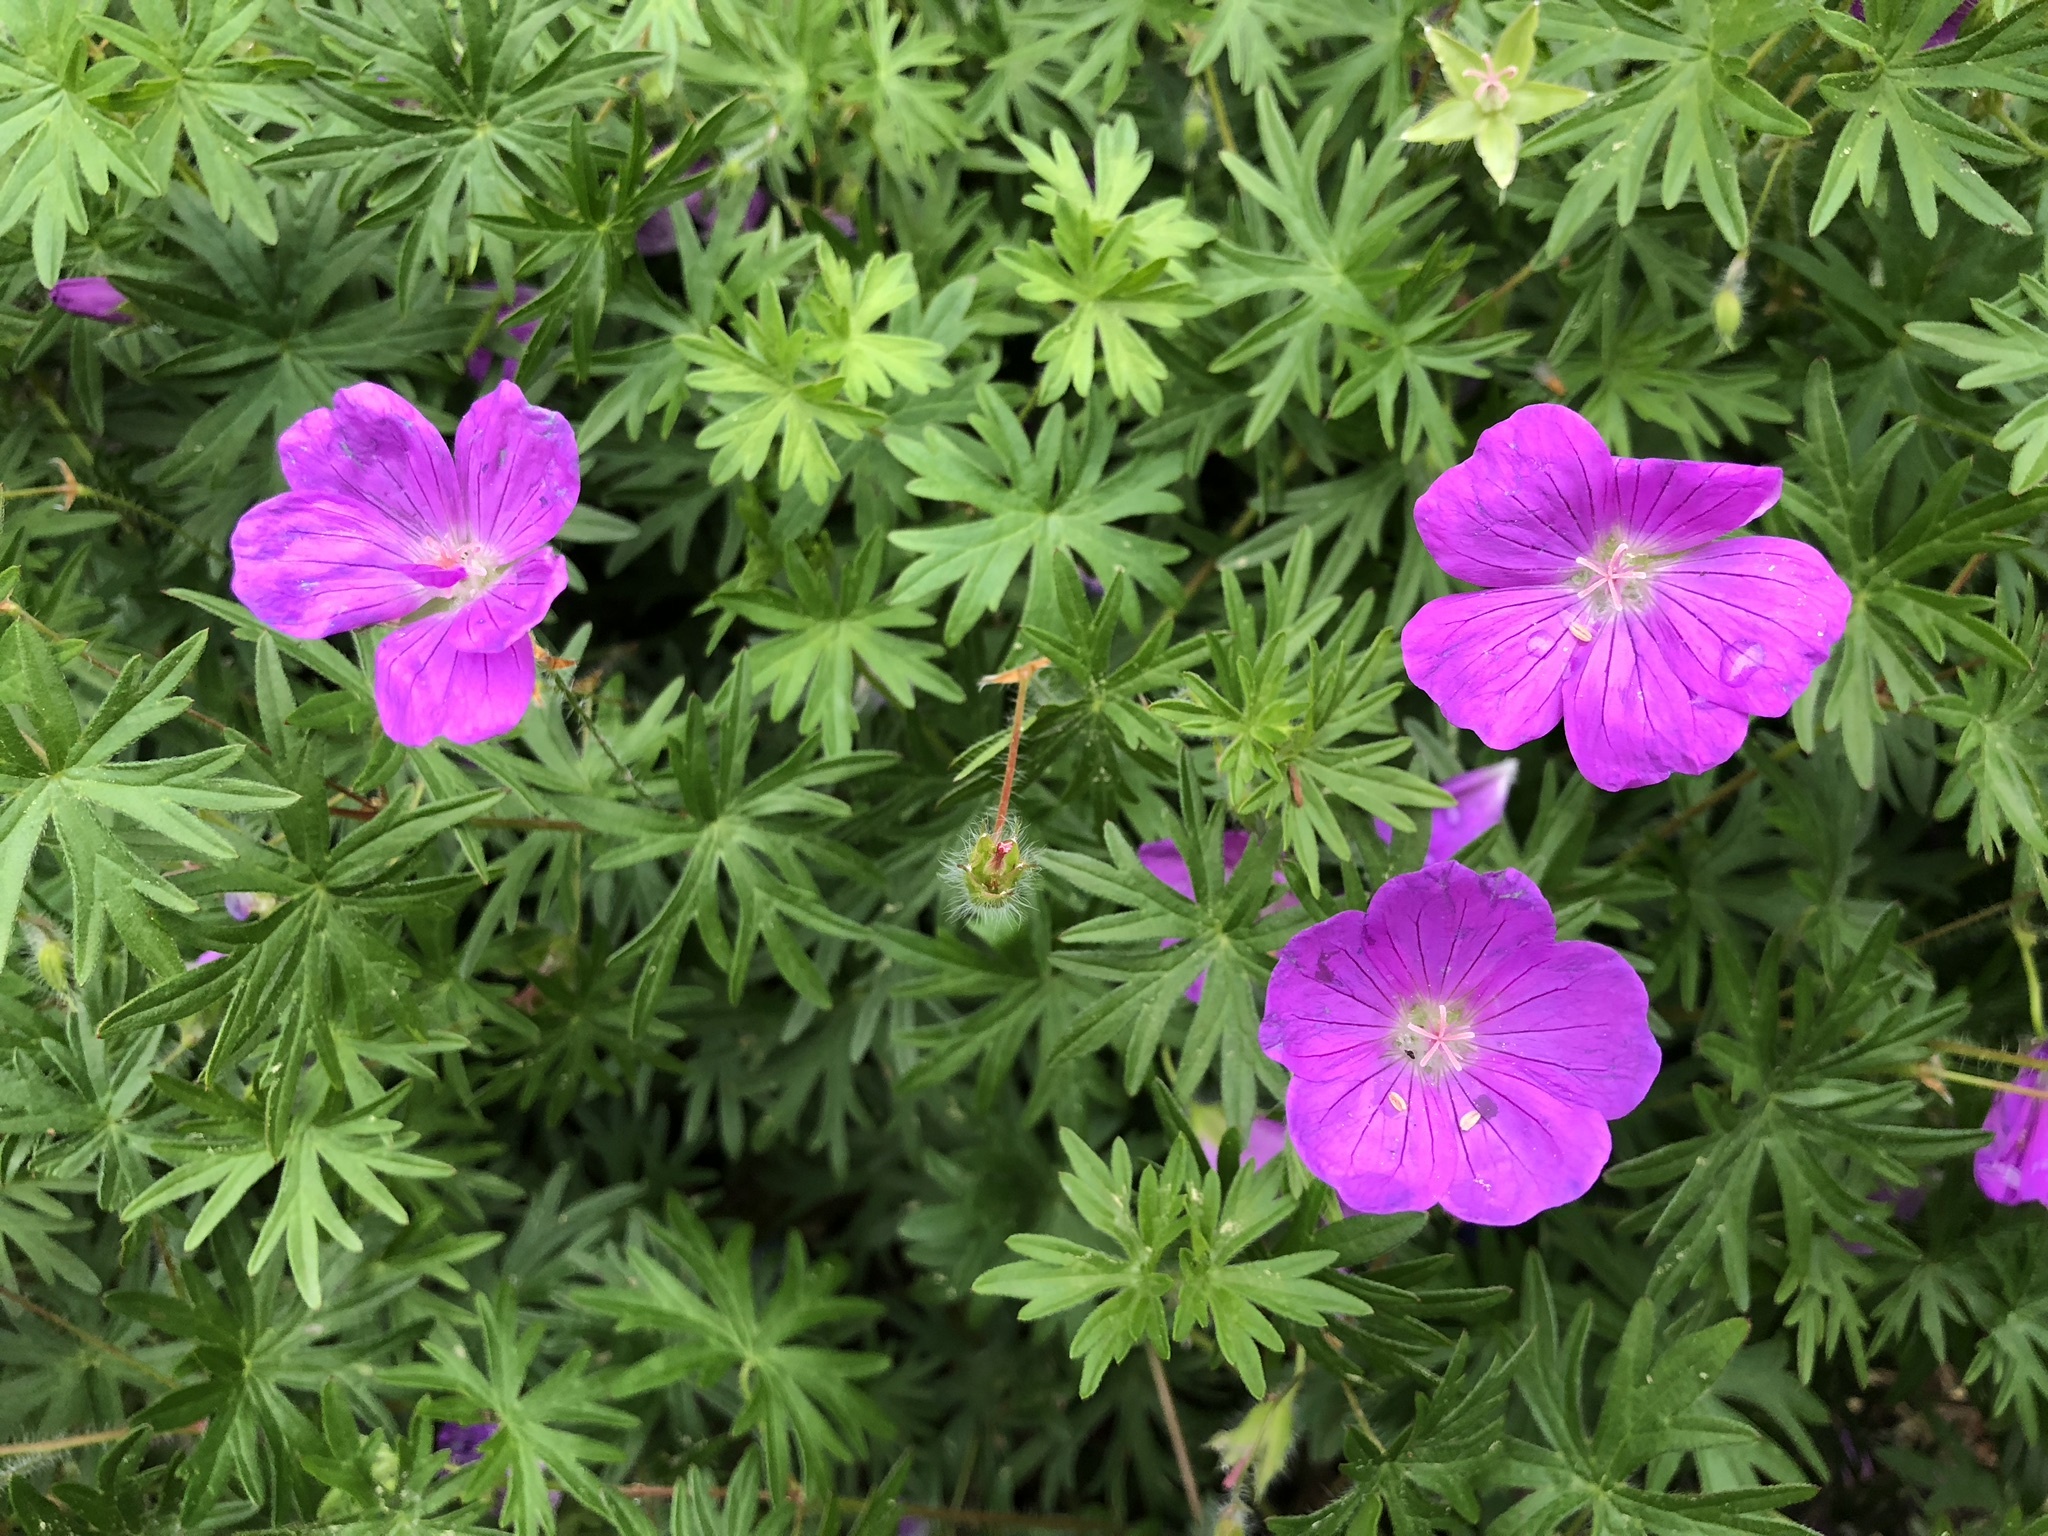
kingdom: Plantae
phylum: Tracheophyta
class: Magnoliopsida
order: Geraniales
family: Geraniaceae
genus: Geranium
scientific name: Geranium sanguineum
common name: Bloody crane's-bill
